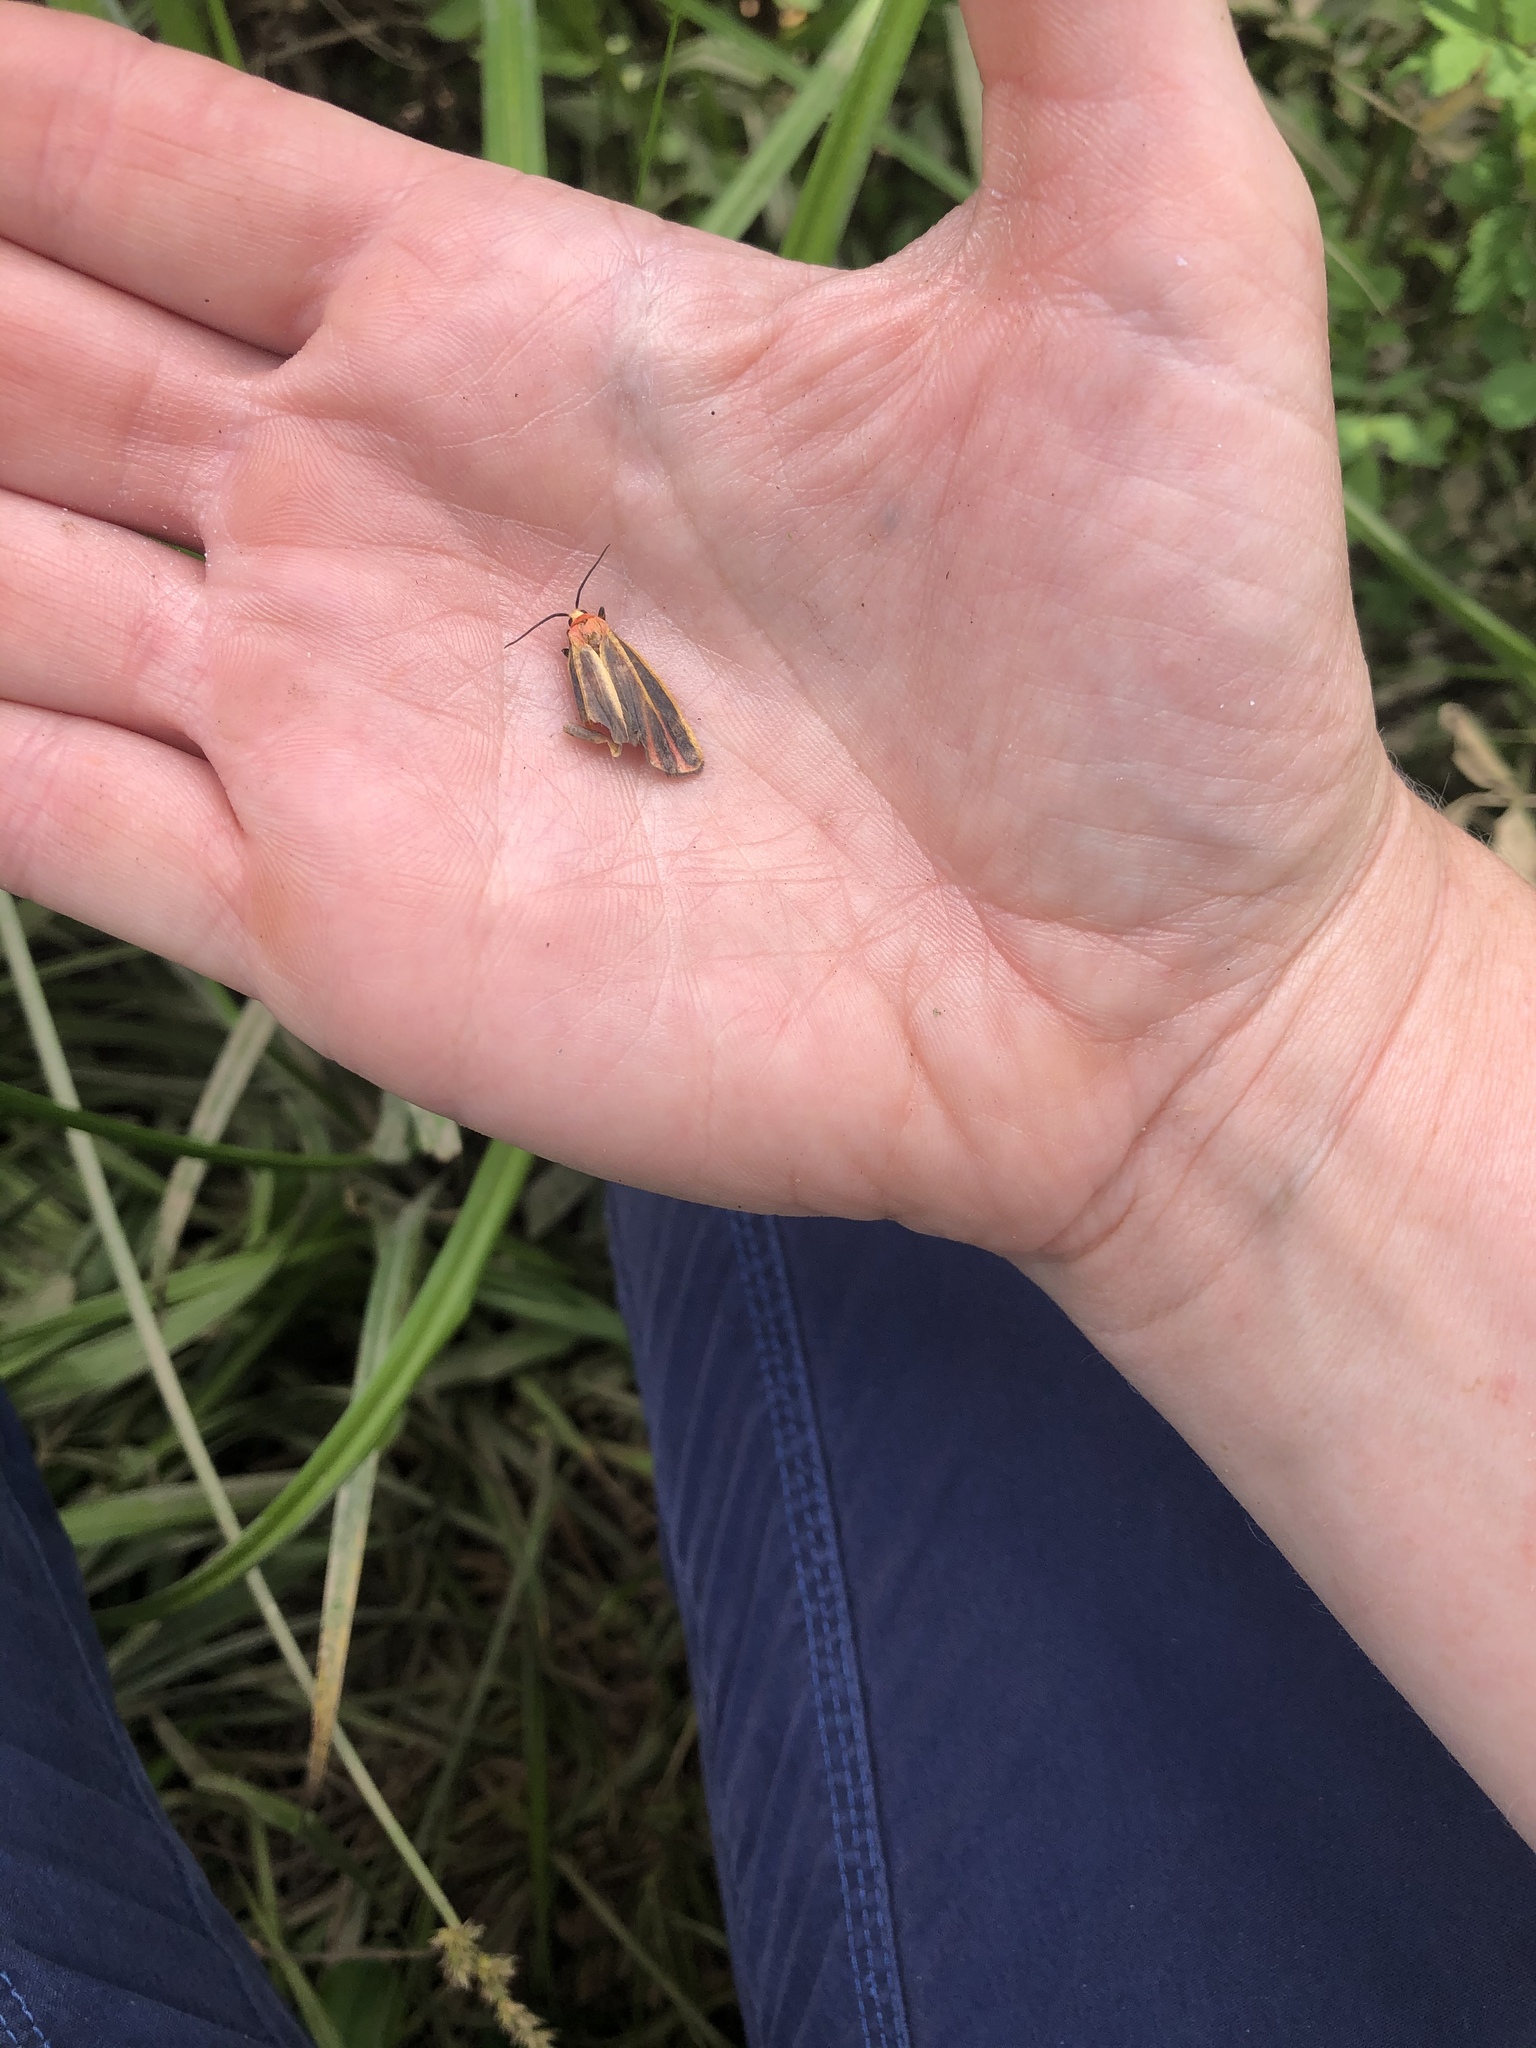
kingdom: Animalia
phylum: Arthropoda
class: Insecta
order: Lepidoptera
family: Erebidae
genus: Hypoprepia
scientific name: Hypoprepia fucosa
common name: Painted lichen moth
